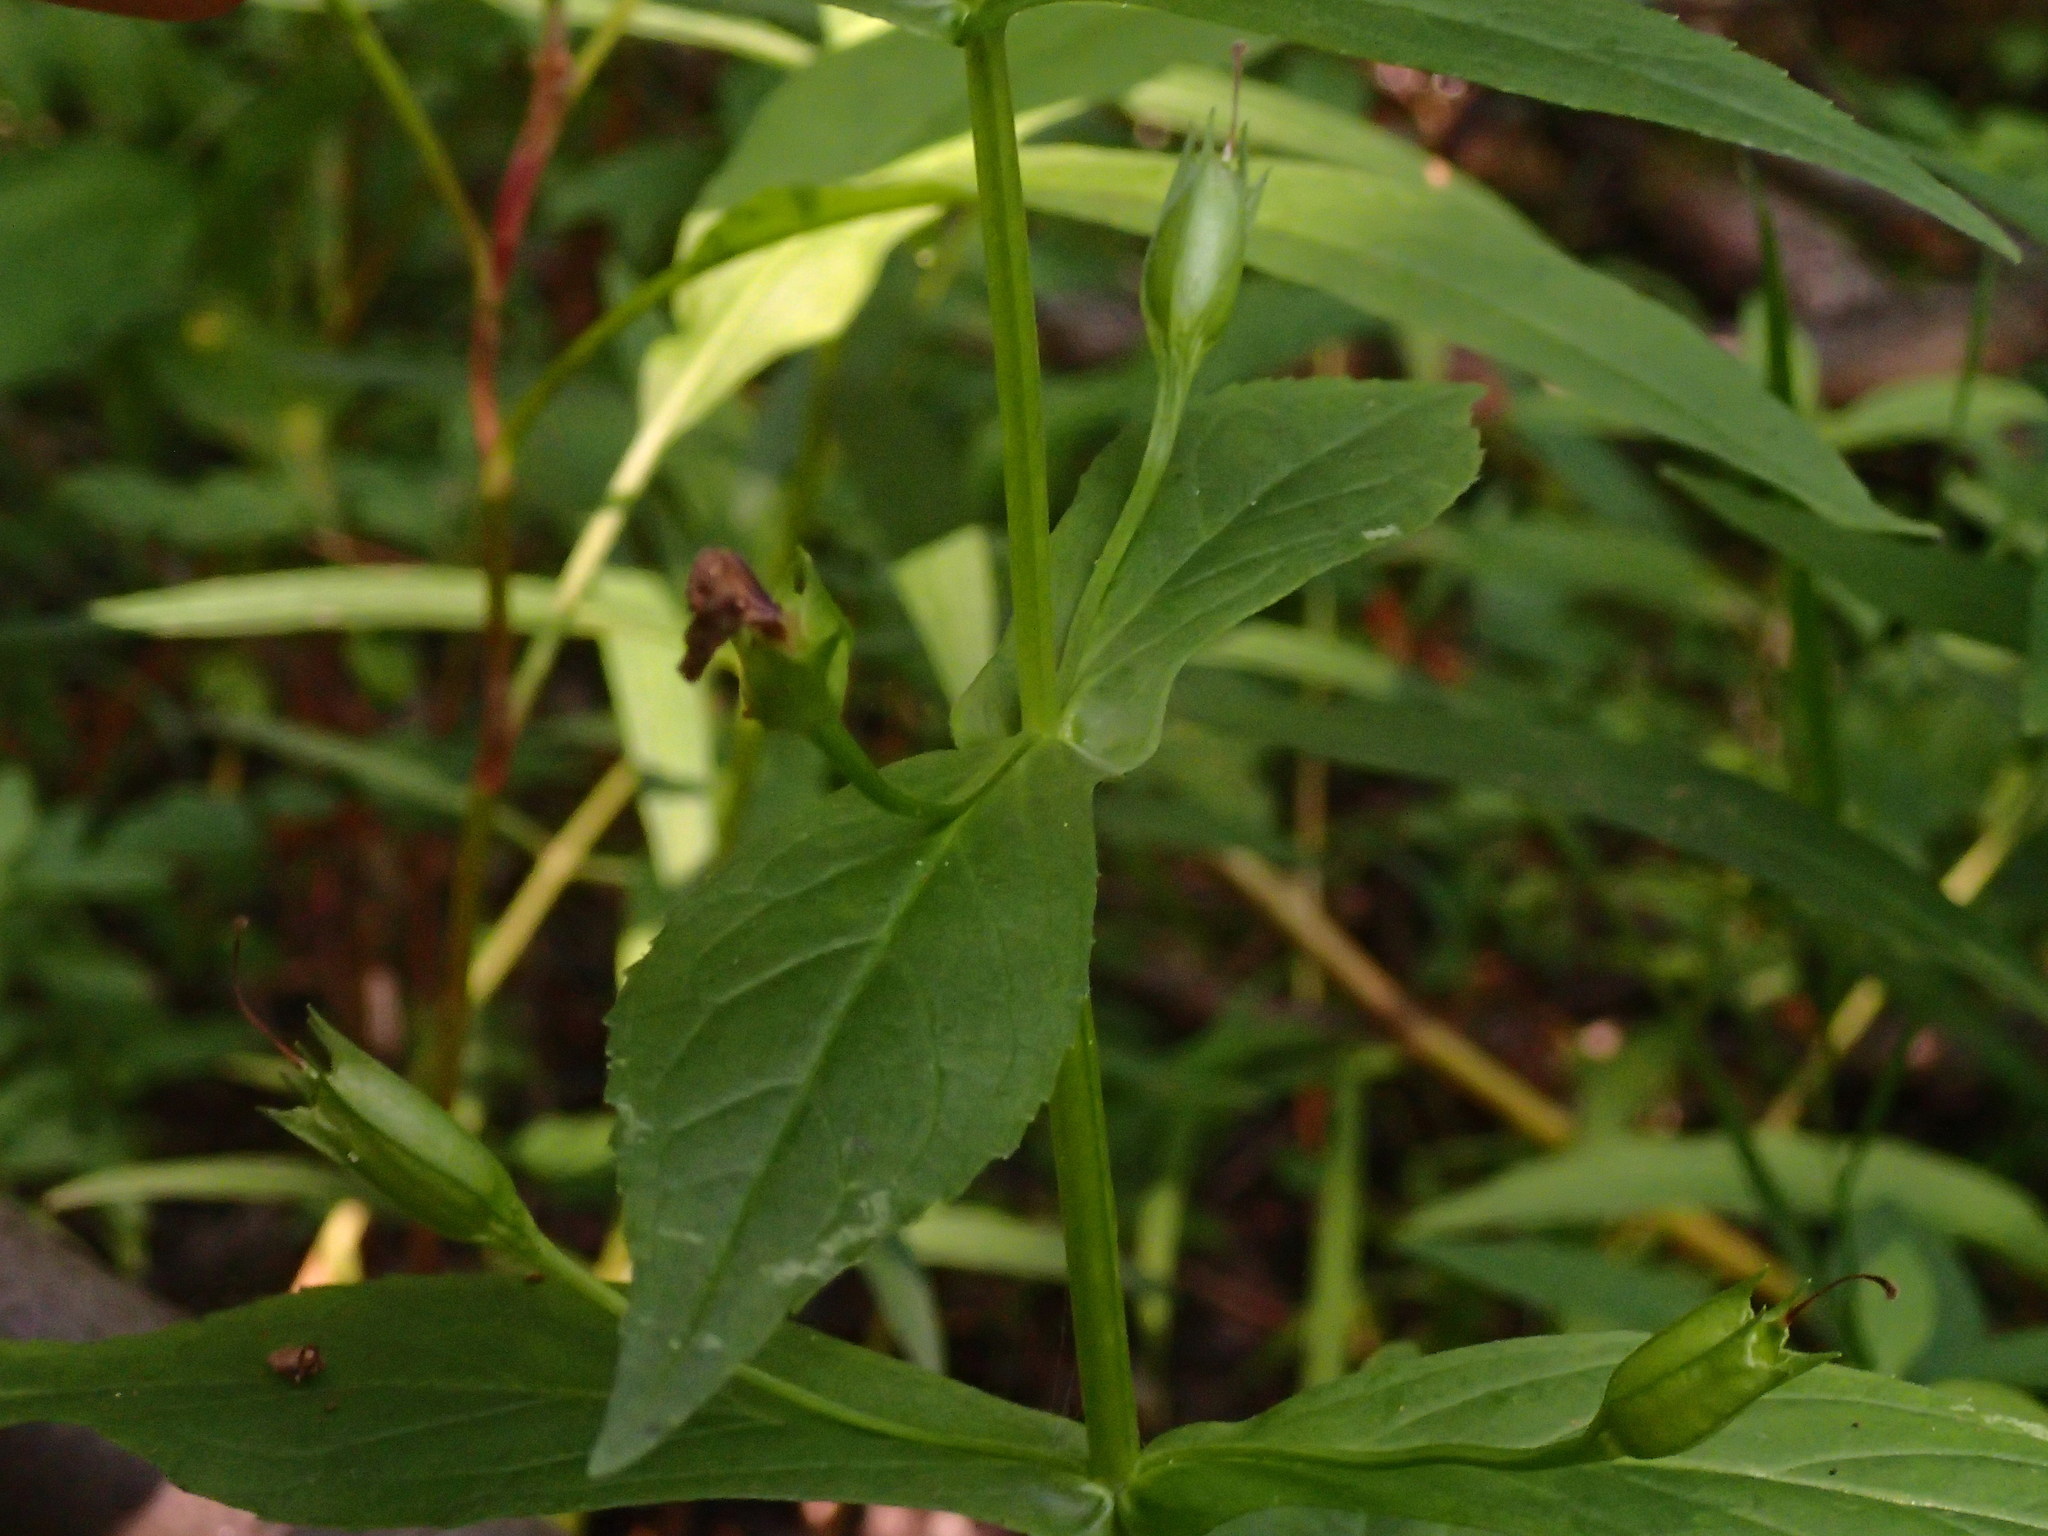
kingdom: Plantae
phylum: Tracheophyta
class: Magnoliopsida
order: Lamiales
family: Phrymaceae
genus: Mimulus
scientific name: Mimulus ringens
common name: Allegheny monkeyflower
